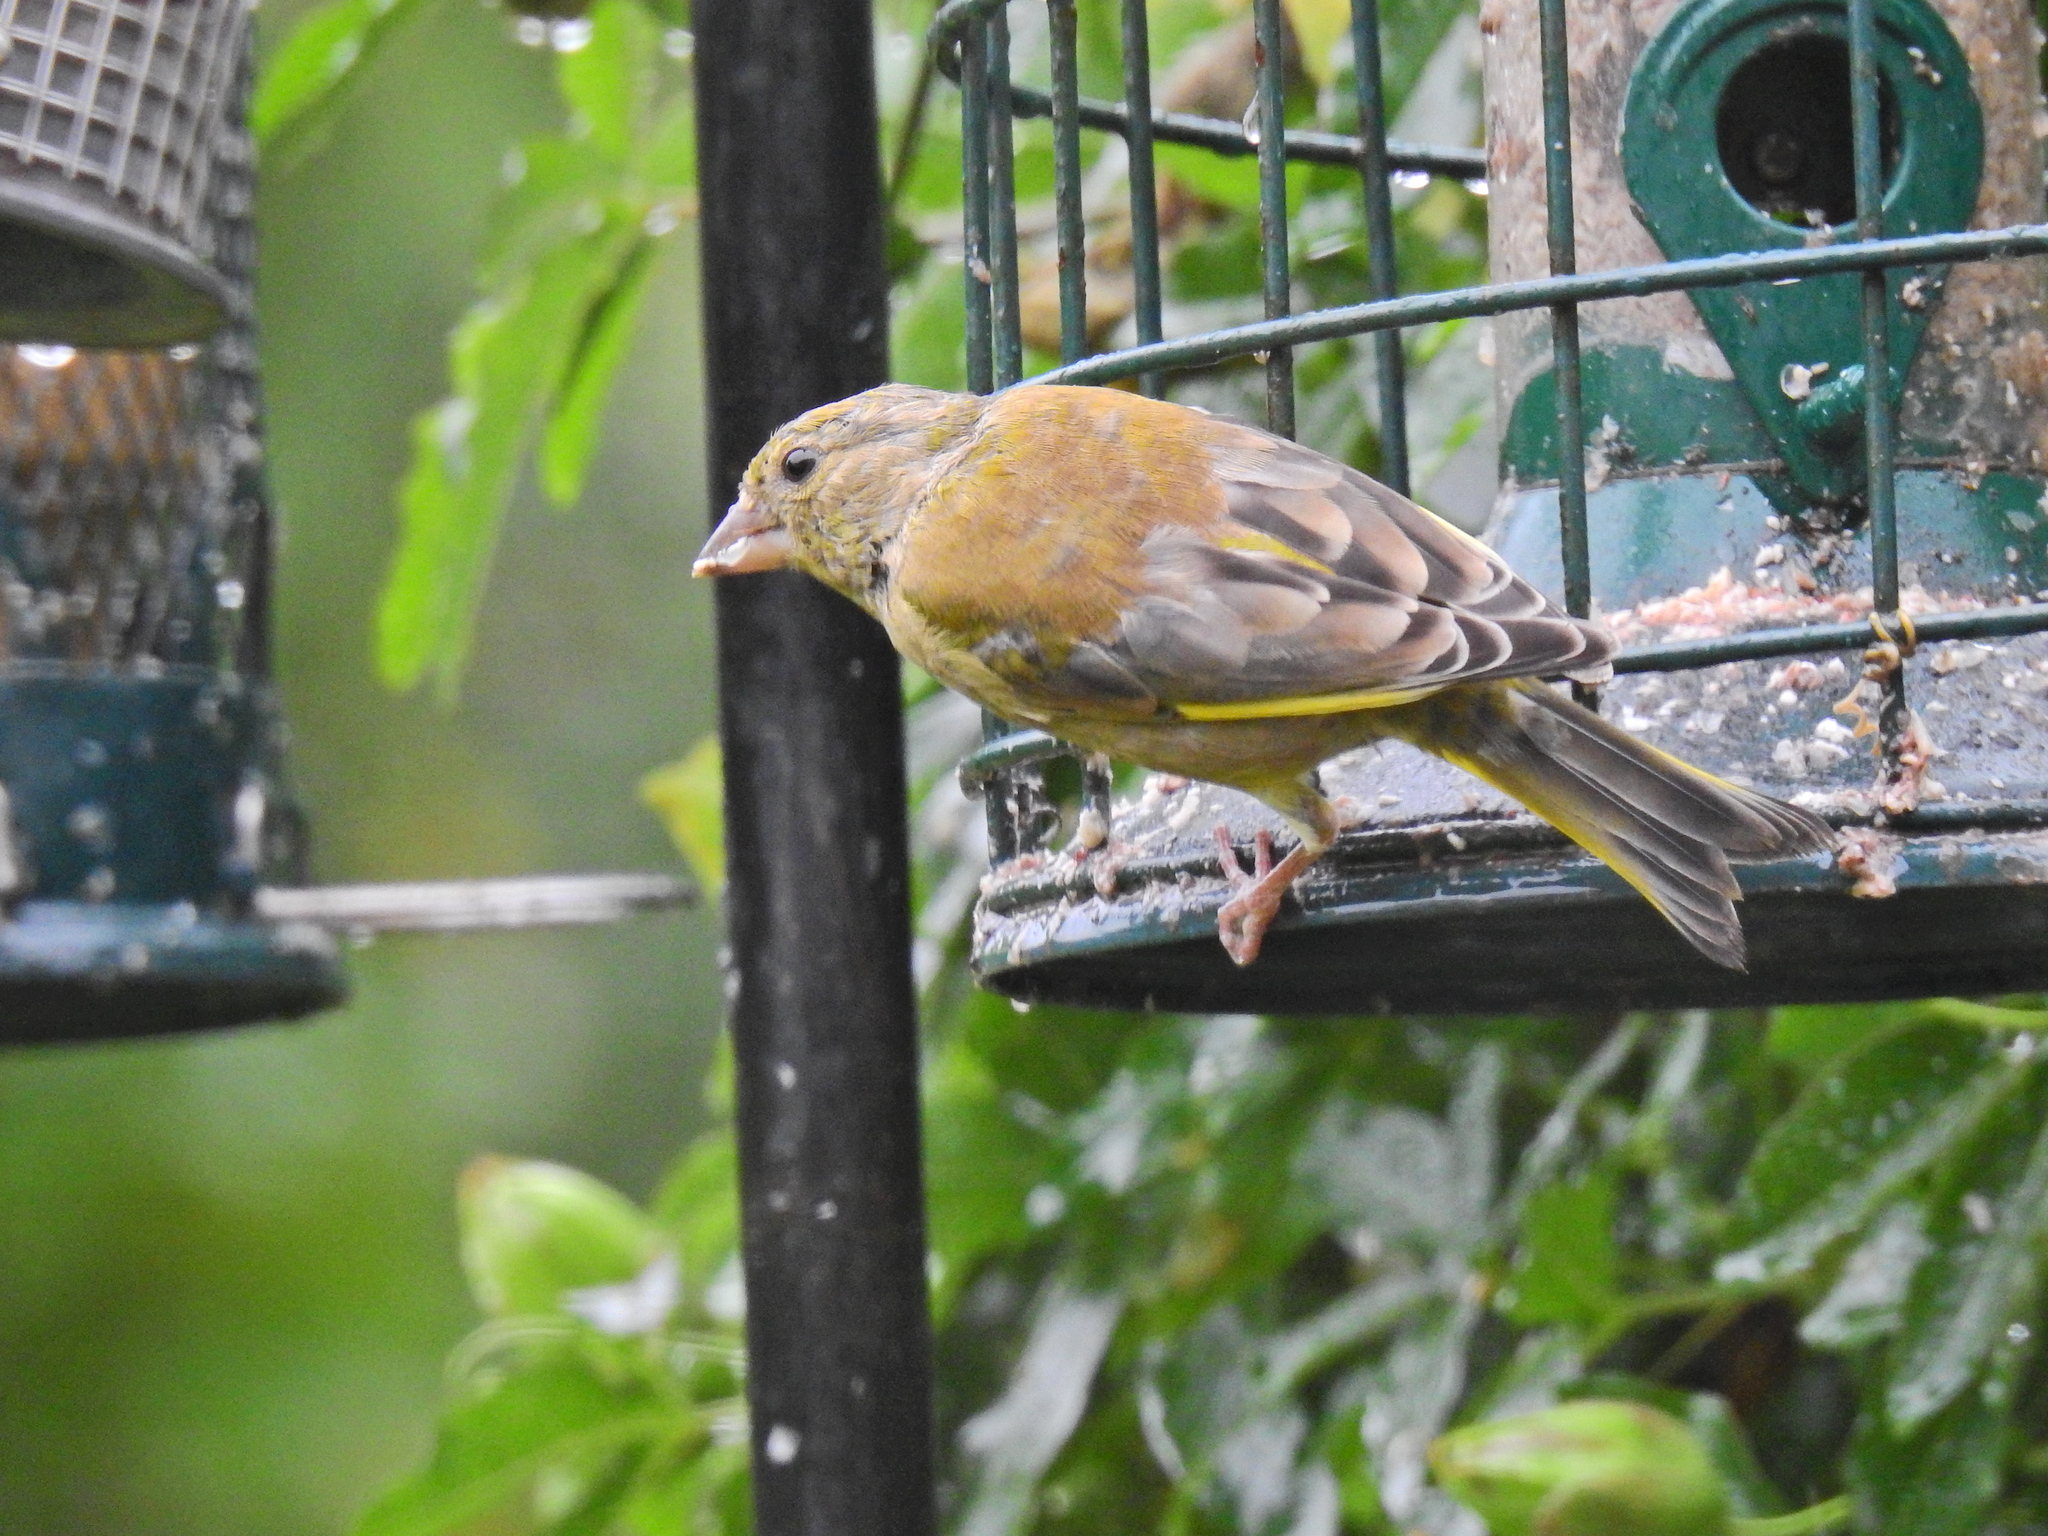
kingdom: Plantae
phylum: Tracheophyta
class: Liliopsida
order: Poales
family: Poaceae
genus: Chloris
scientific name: Chloris chloris
